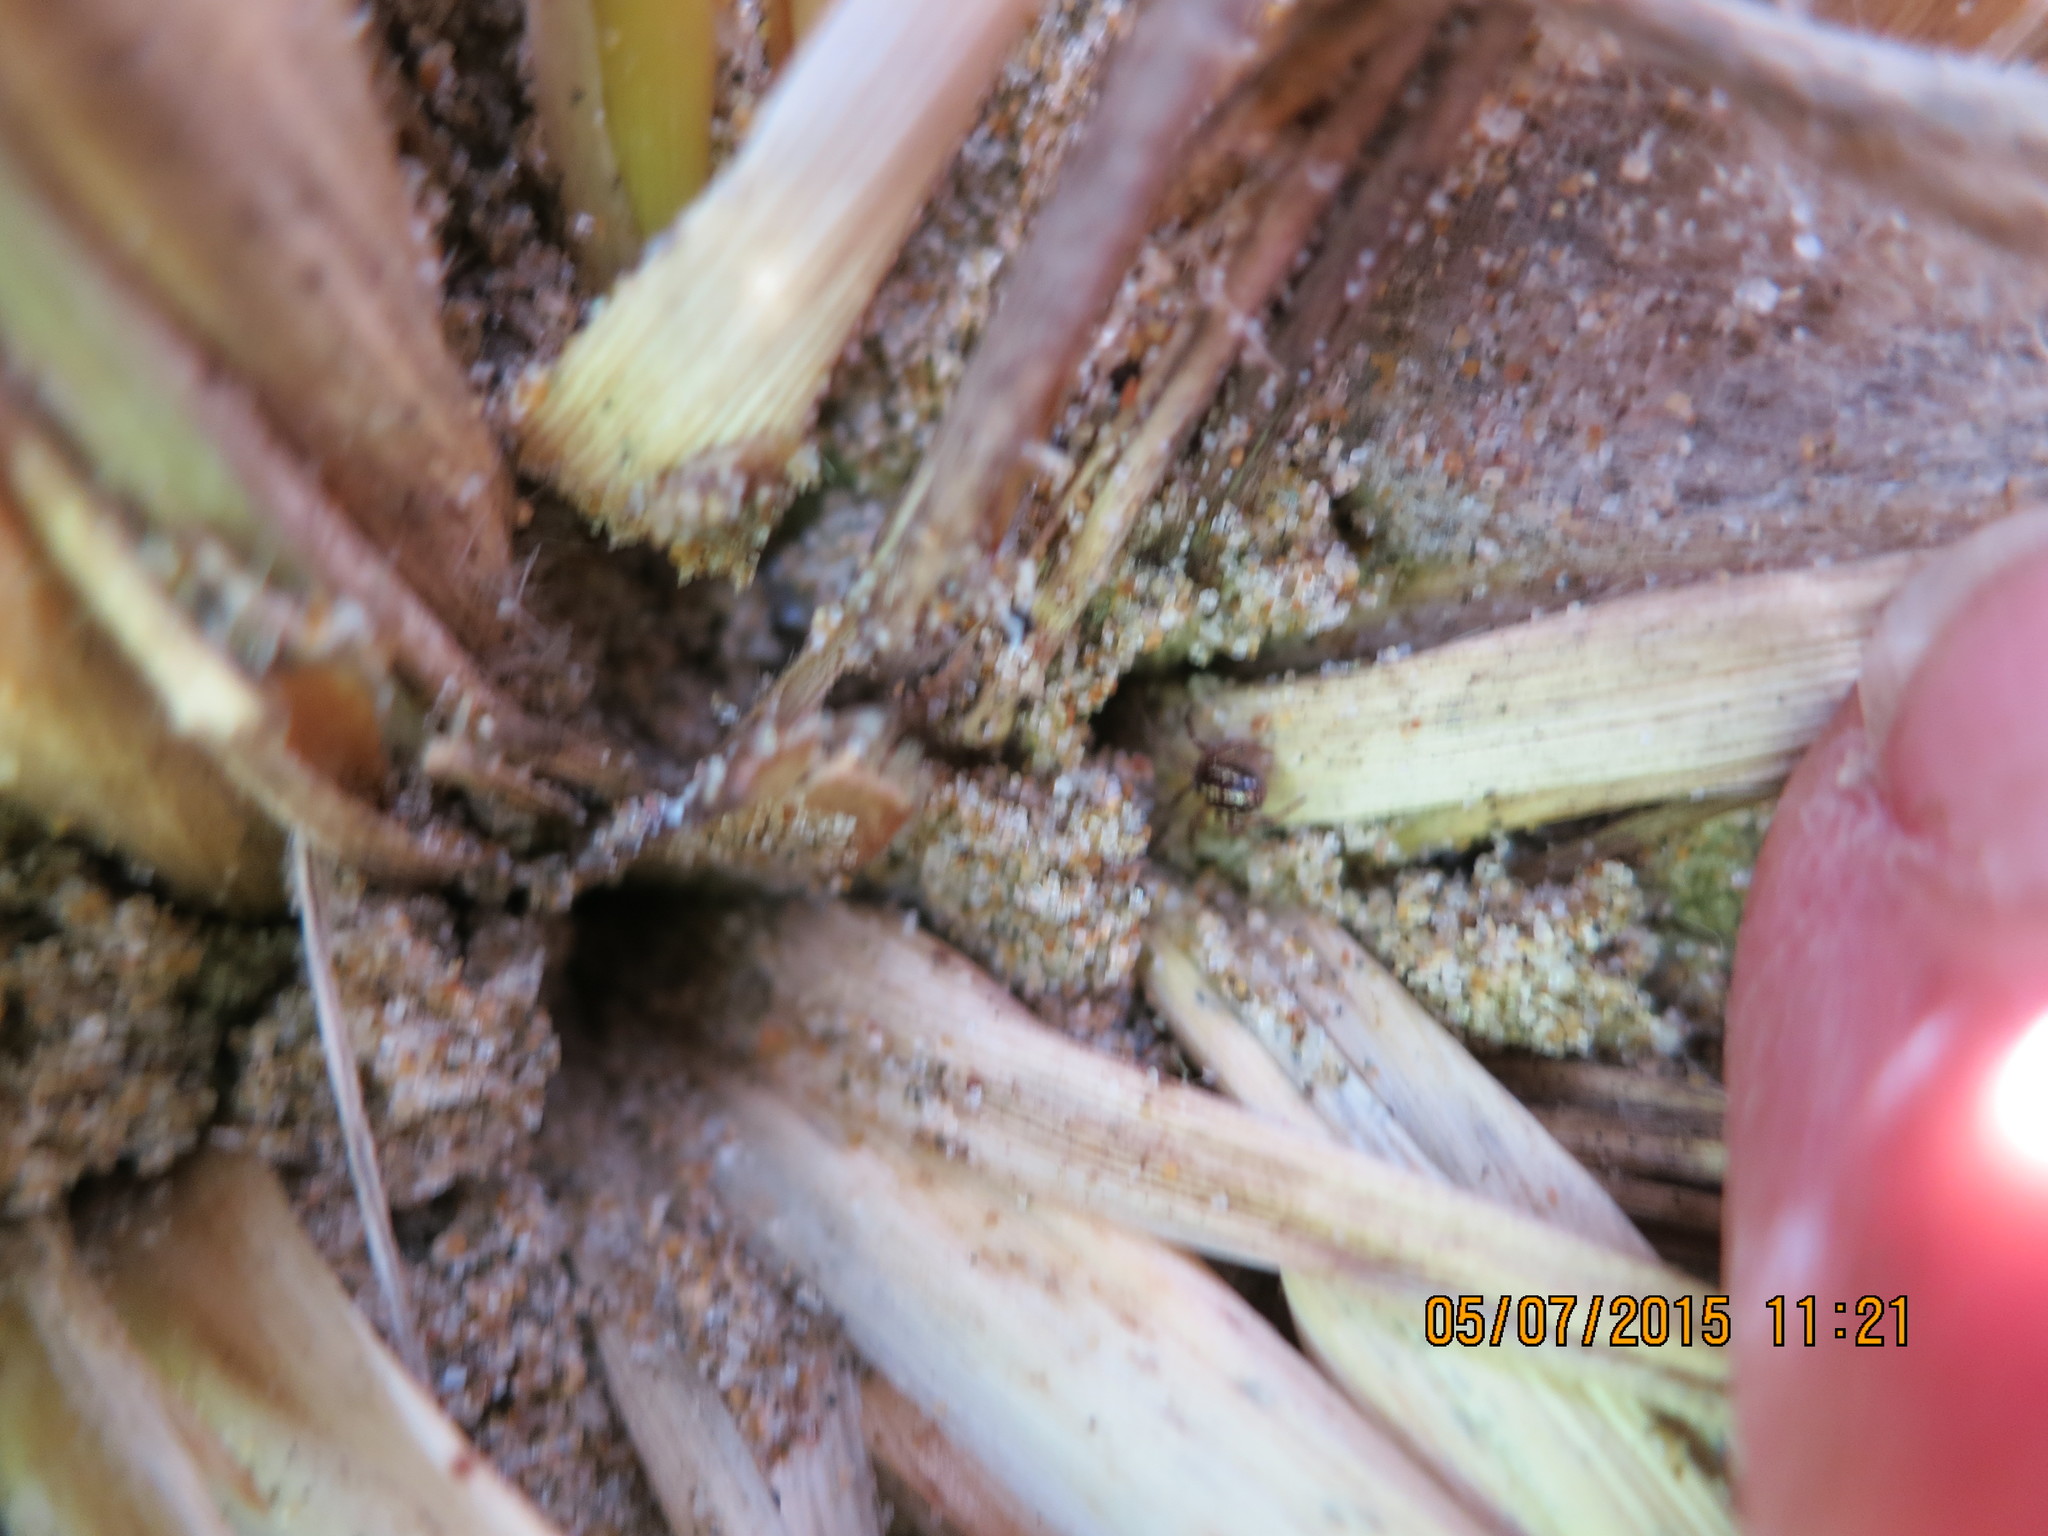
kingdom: Animalia
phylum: Arthropoda
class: Arachnida
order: Araneae
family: Theridiidae
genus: Steatoda
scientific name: Steatoda lepida
